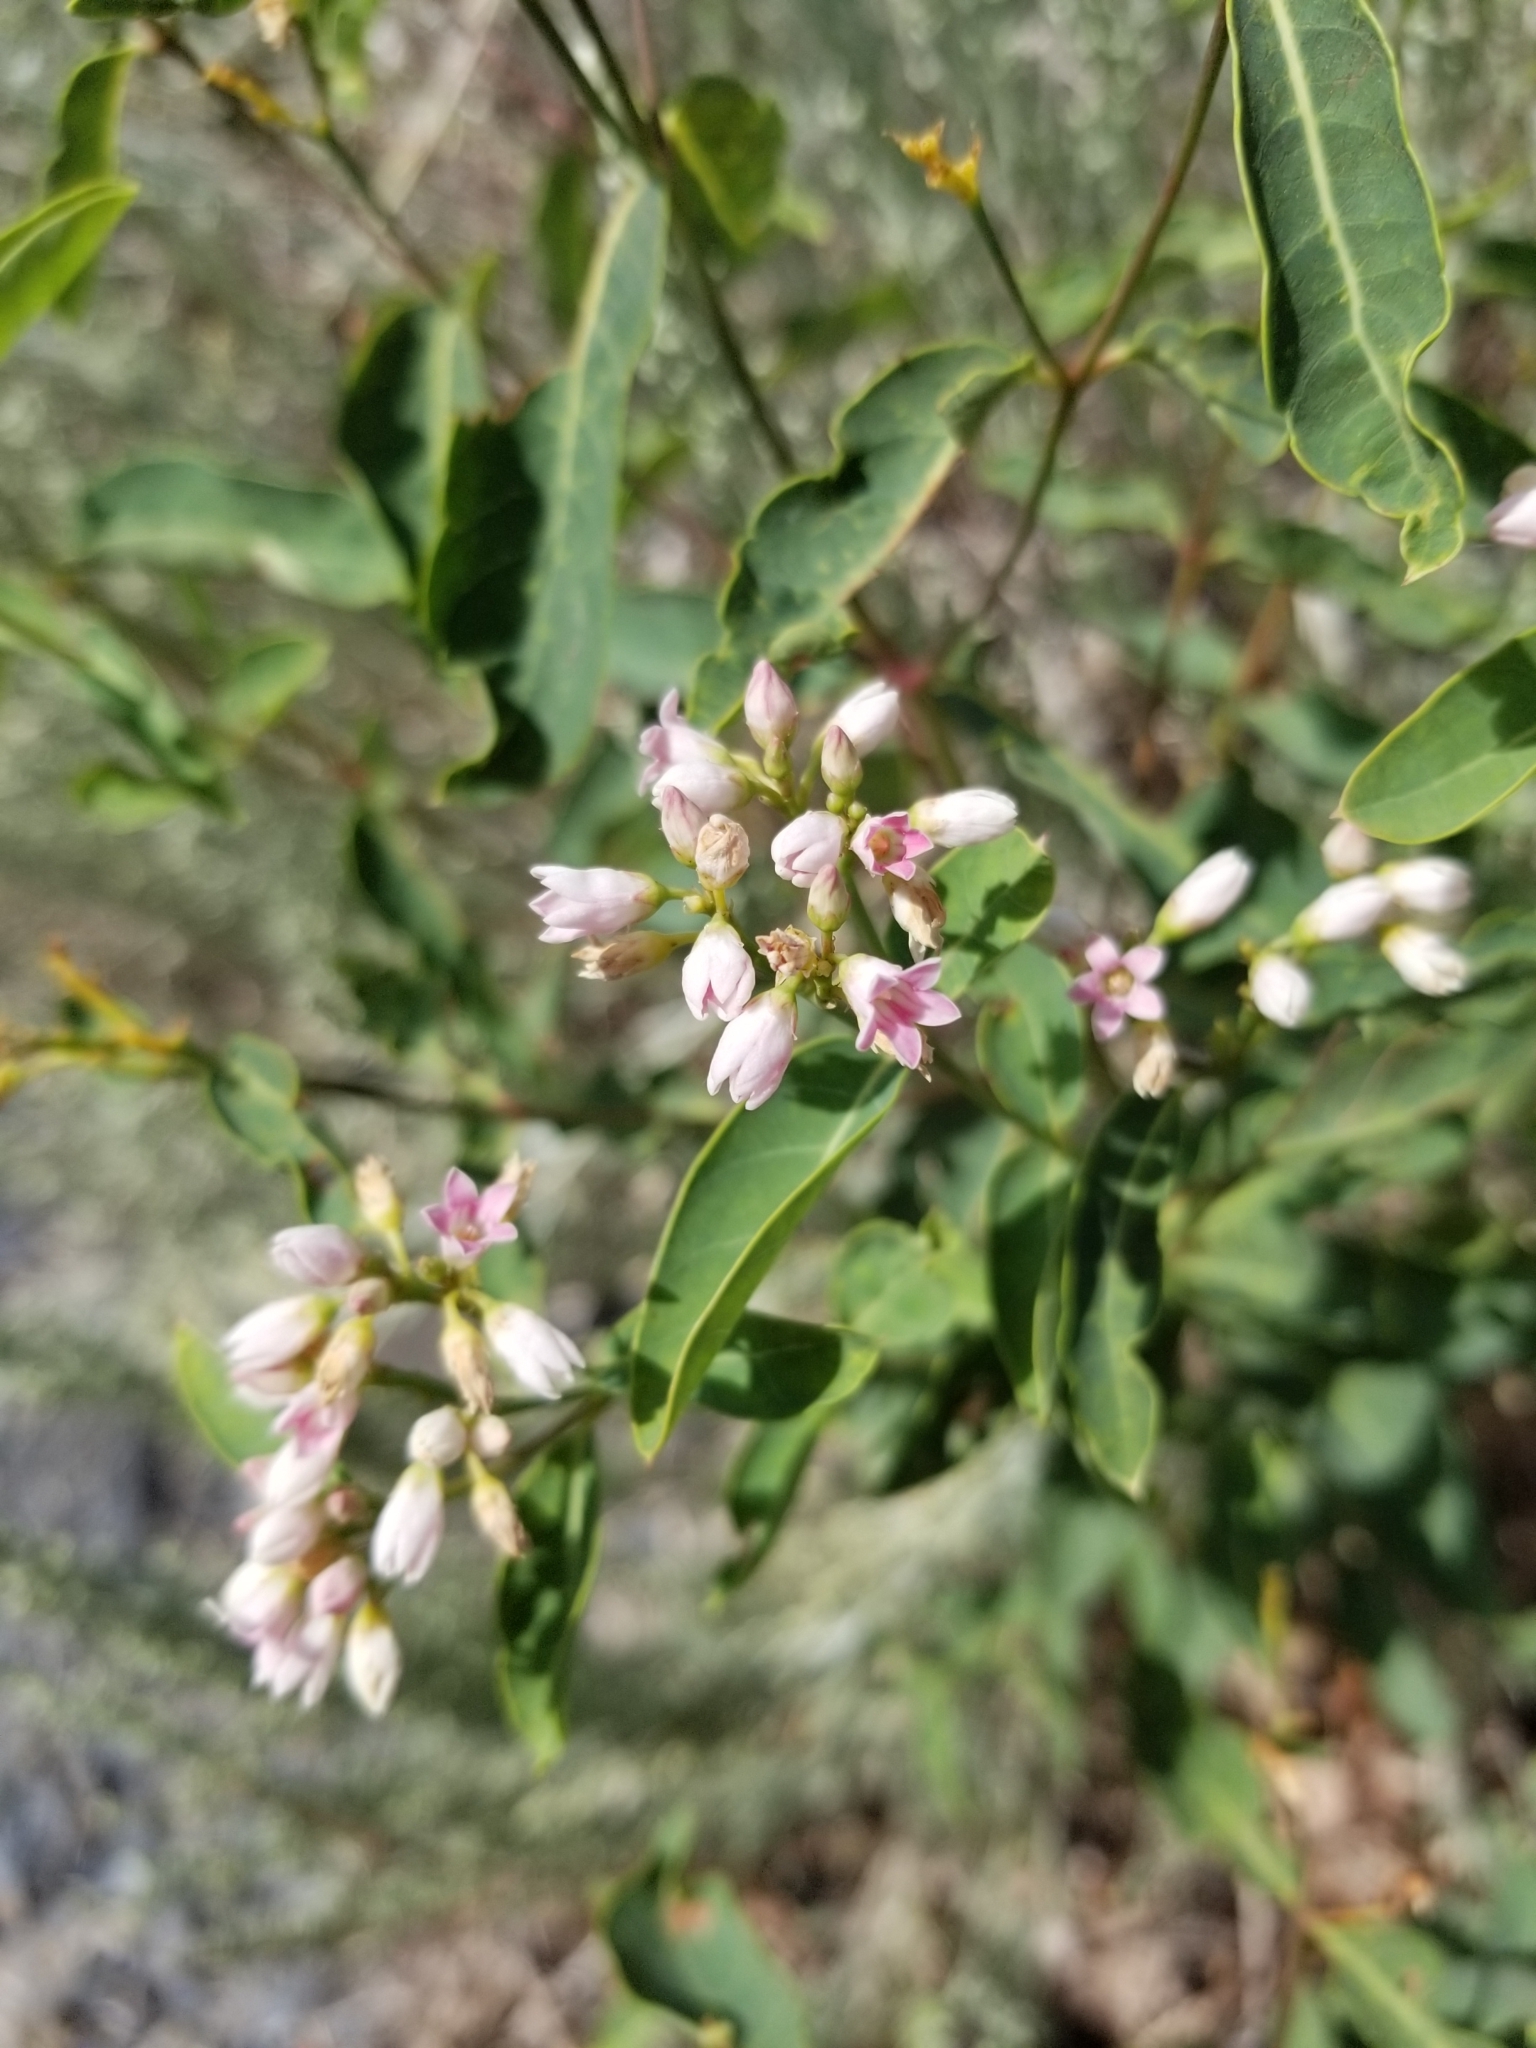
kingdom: Plantae
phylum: Tracheophyta
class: Magnoliopsida
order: Gentianales
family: Apocynaceae
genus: Apocynum
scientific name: Apocynum androsaemifolium
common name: Spreading dogbane
